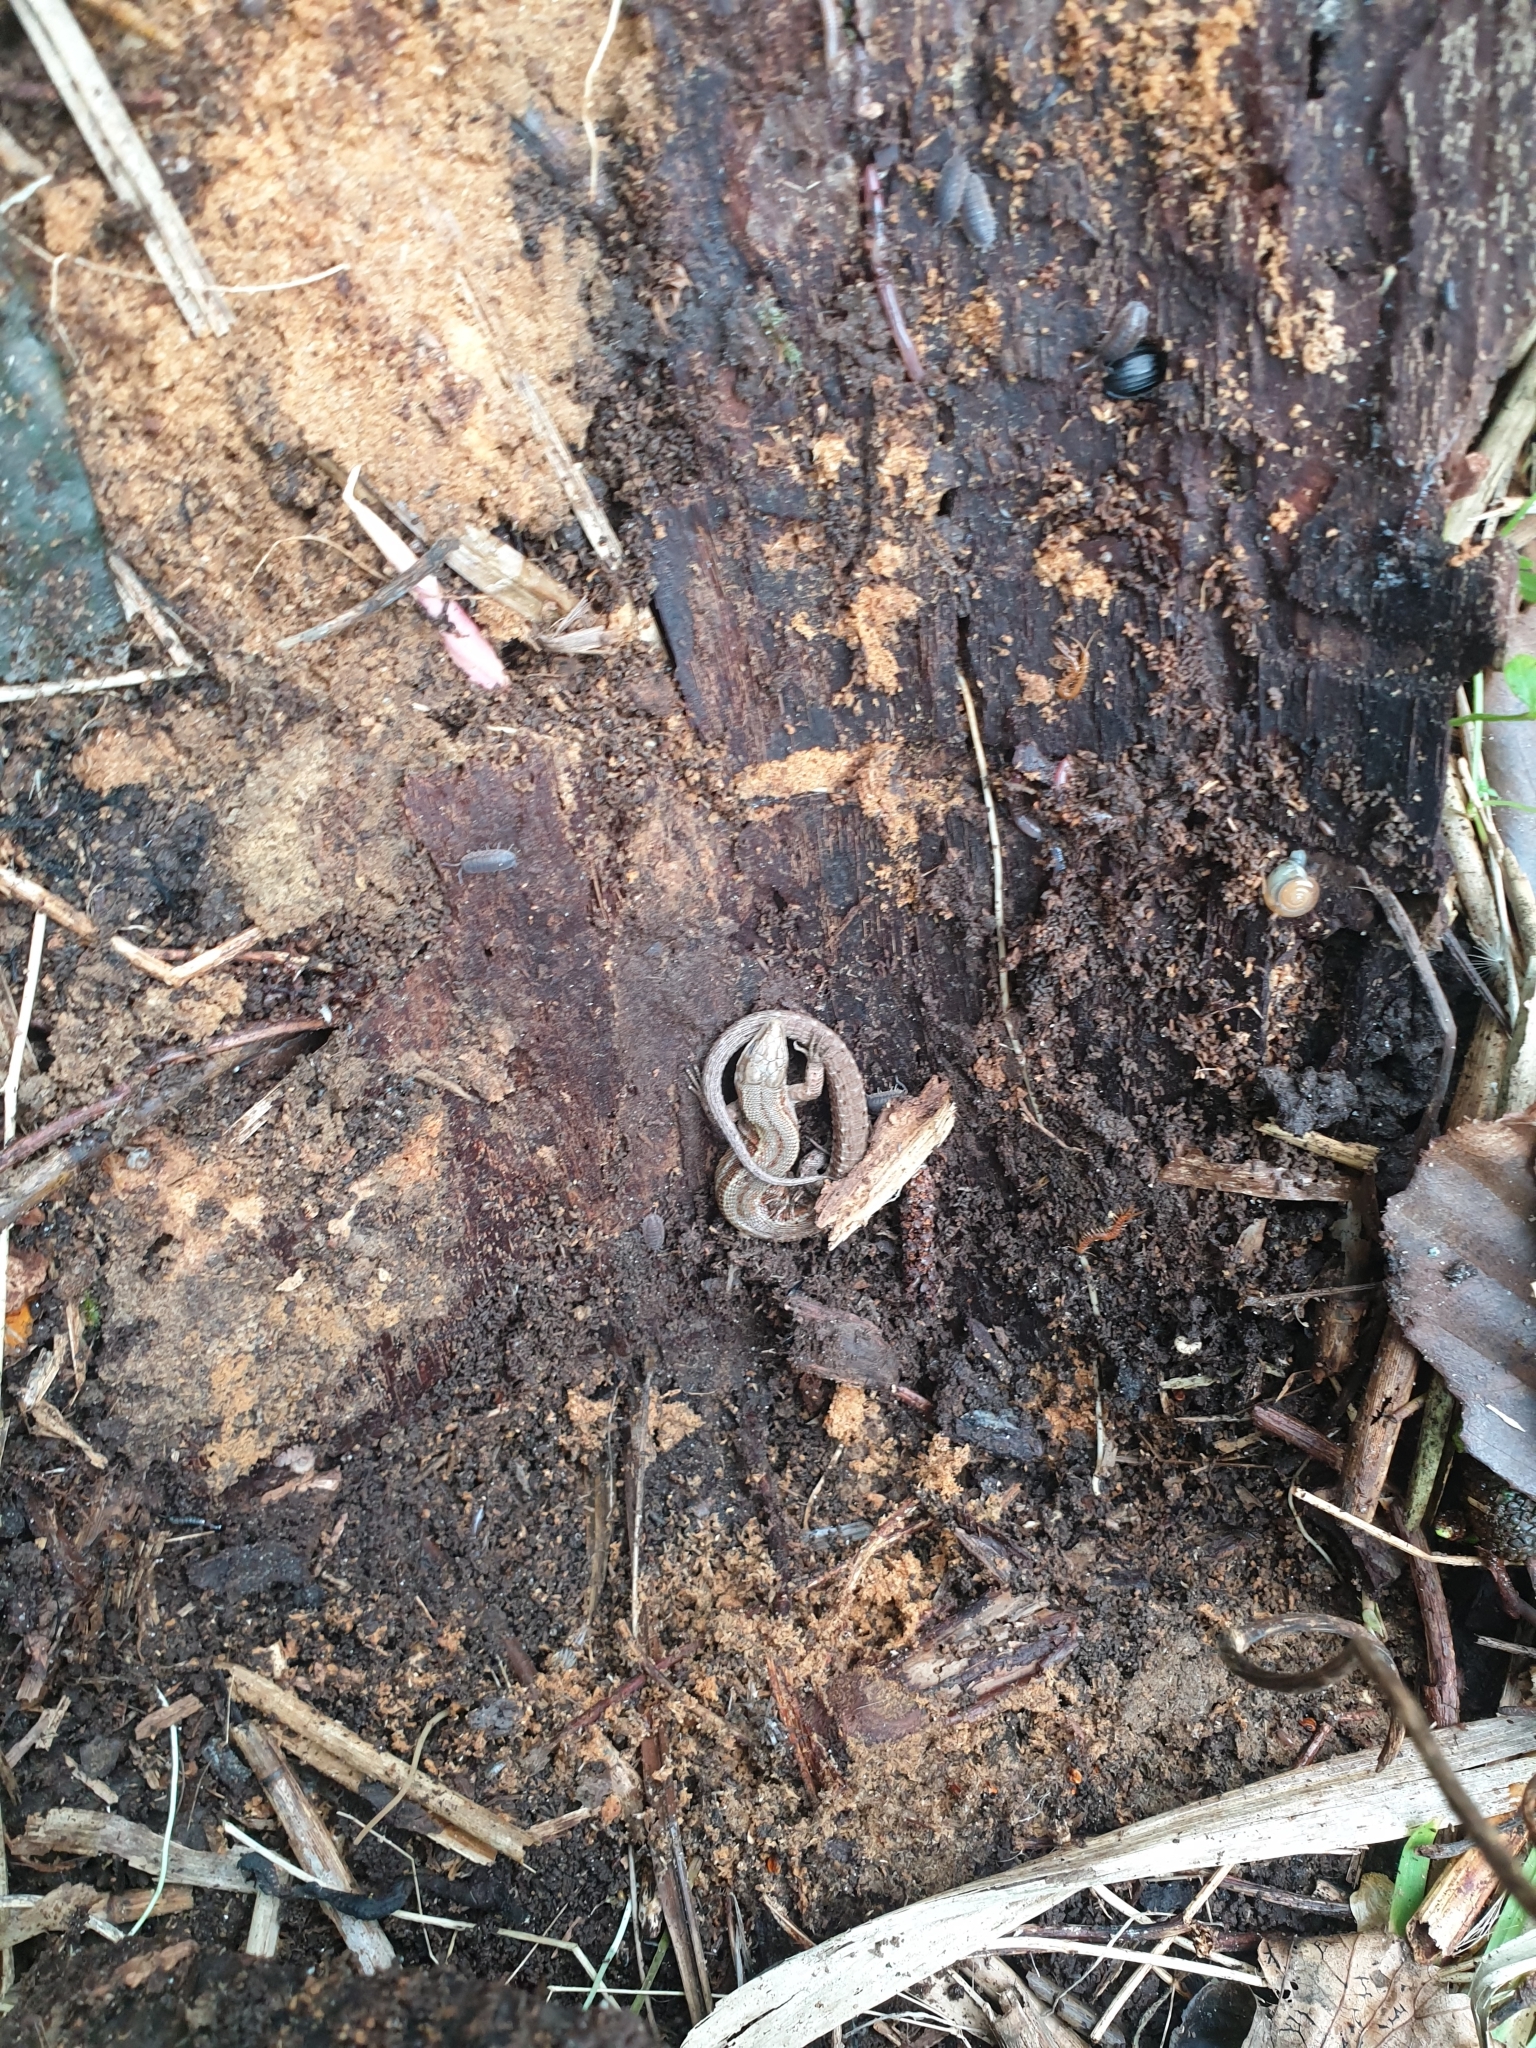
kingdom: Animalia
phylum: Chordata
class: Squamata
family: Lacertidae
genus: Zootoca
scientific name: Zootoca vivipara
